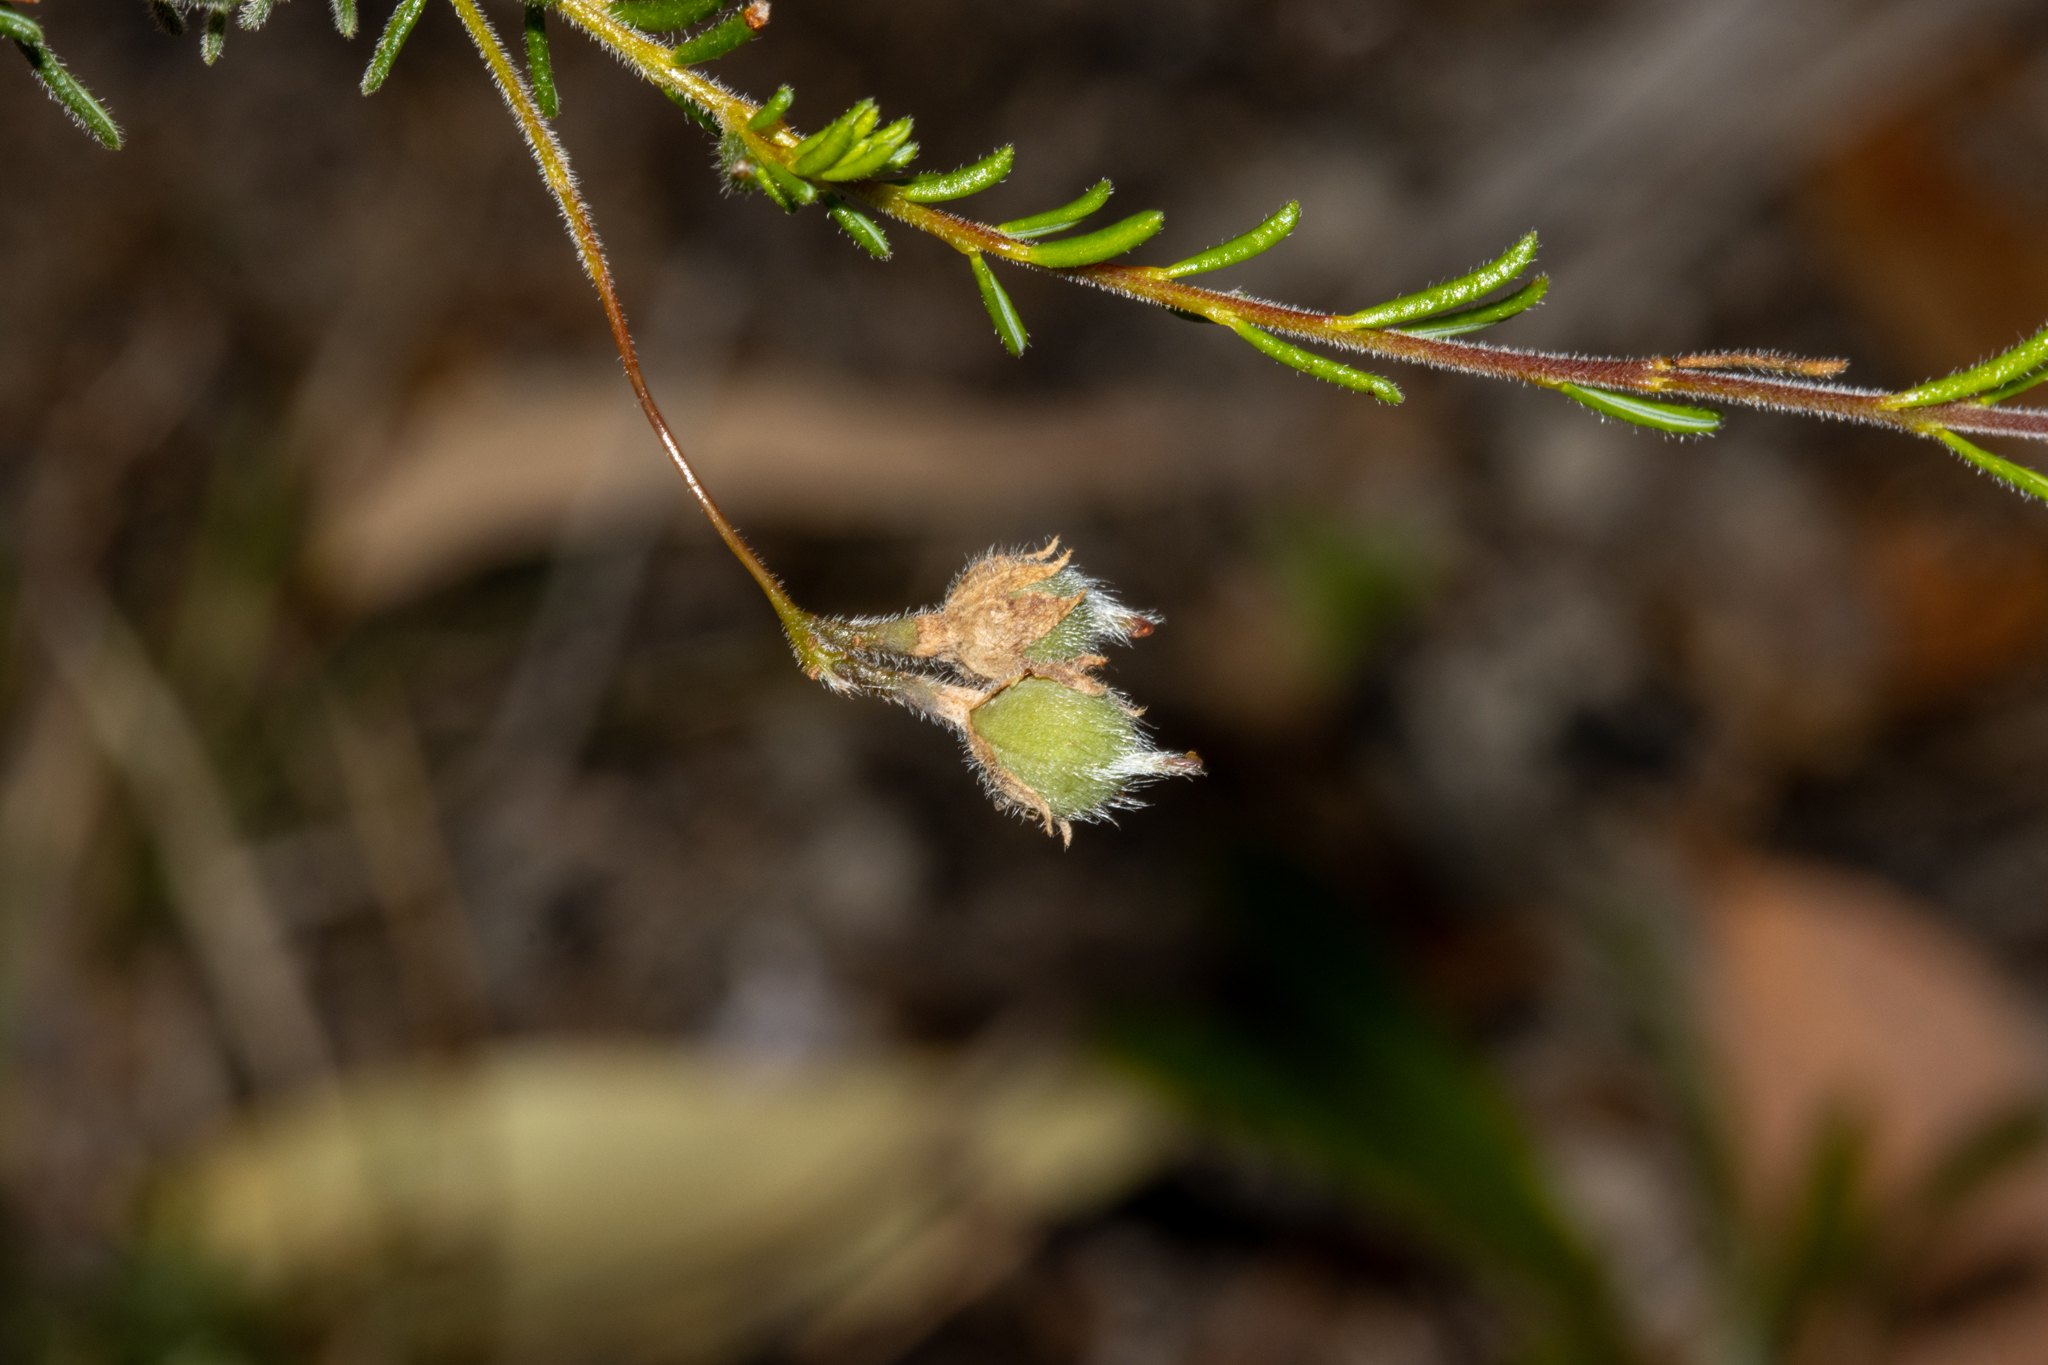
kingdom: Plantae
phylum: Tracheophyta
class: Magnoliopsida
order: Fabales
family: Fabaceae
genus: Dillwynia
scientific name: Dillwynia hispida
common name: Red parrot-pea
